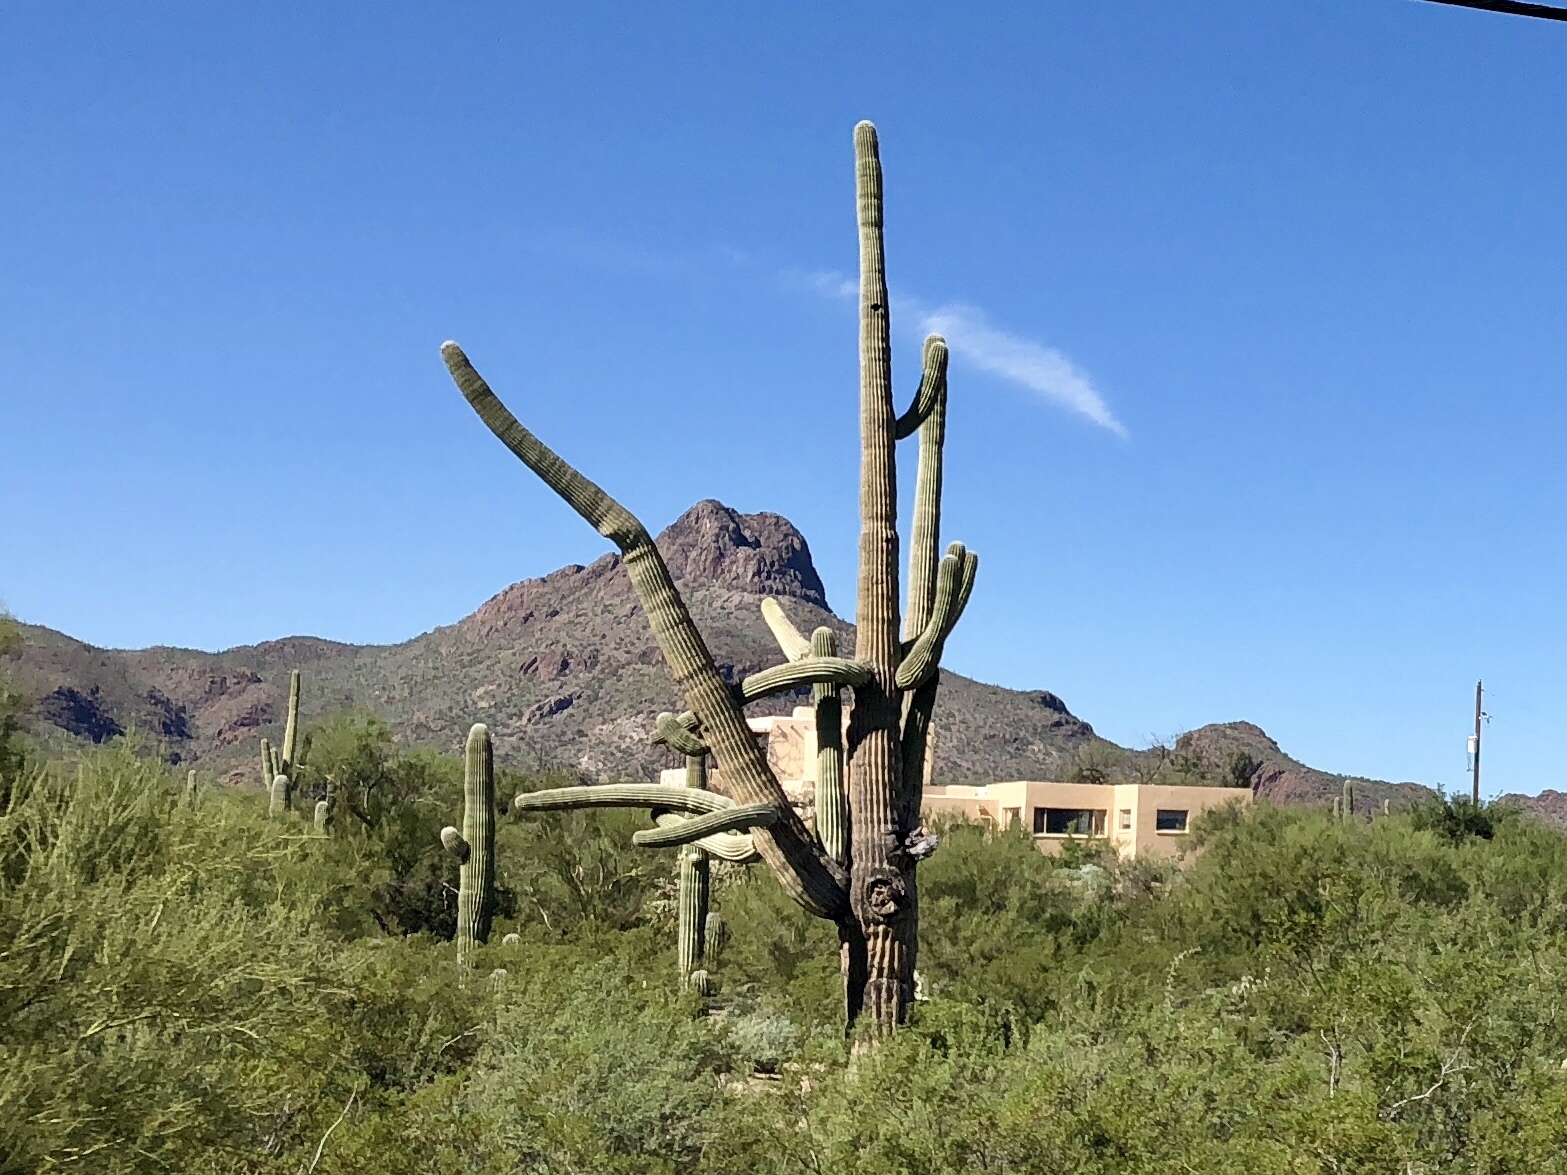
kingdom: Plantae
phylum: Tracheophyta
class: Magnoliopsida
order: Caryophyllales
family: Cactaceae
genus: Carnegiea
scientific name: Carnegiea gigantea
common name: Saguaro
